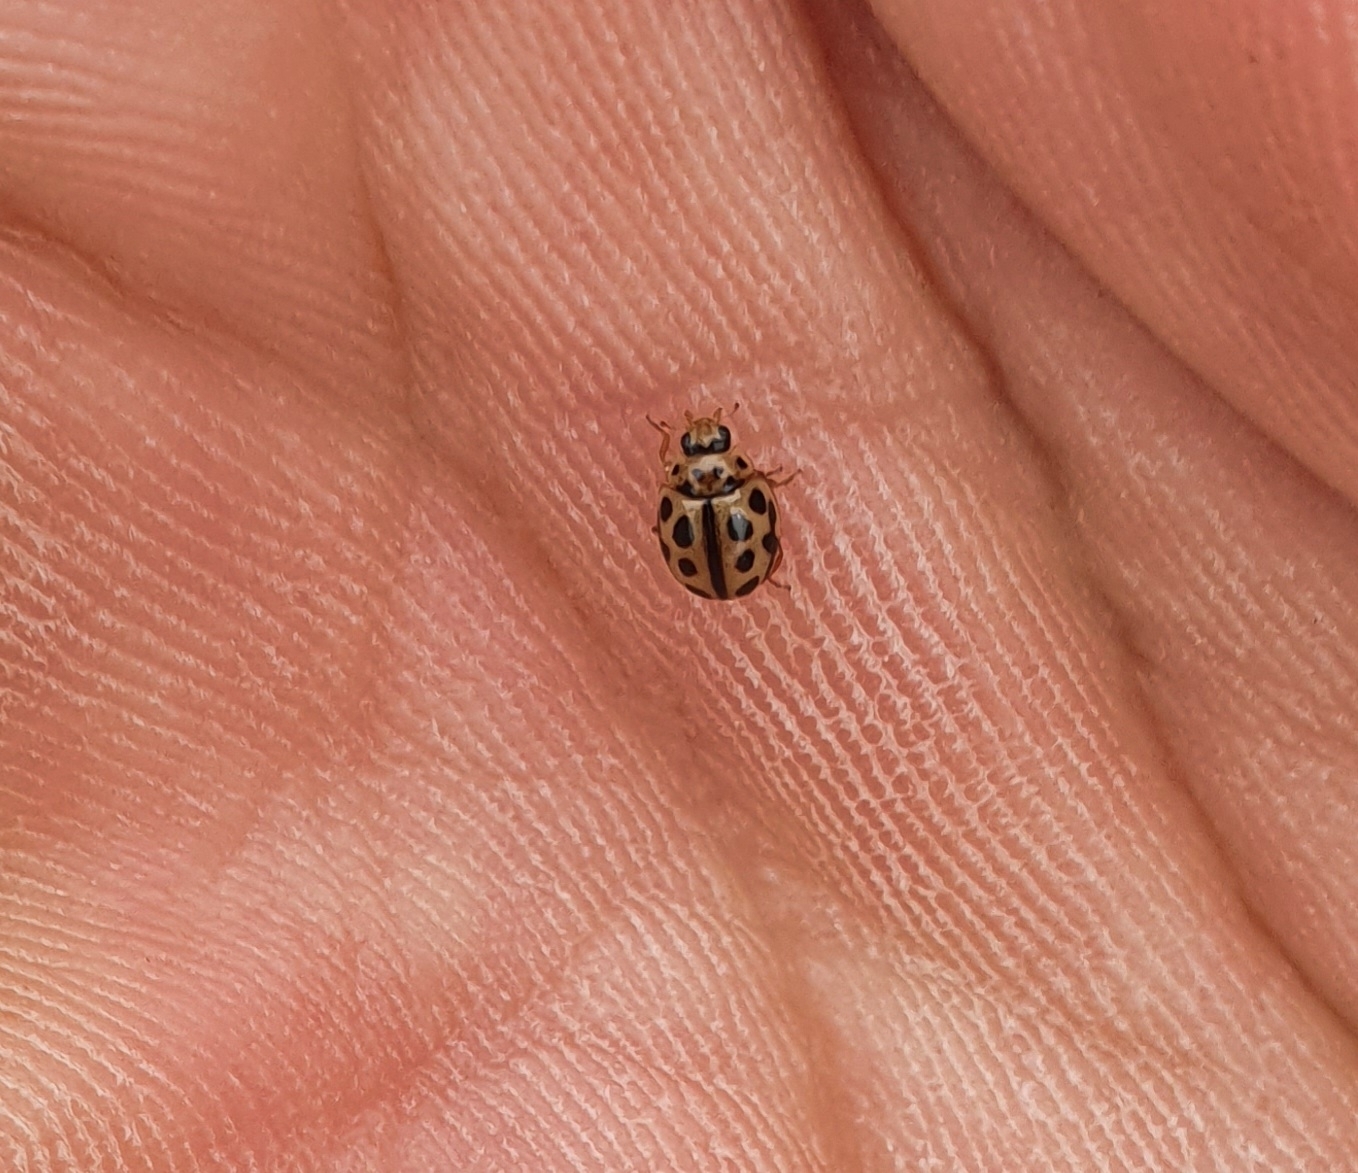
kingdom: Animalia
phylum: Arthropoda
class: Insecta
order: Coleoptera
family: Coccinellidae
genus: Tytthaspis
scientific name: Tytthaspis sedecimpunctata
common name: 16-spot ladybird
